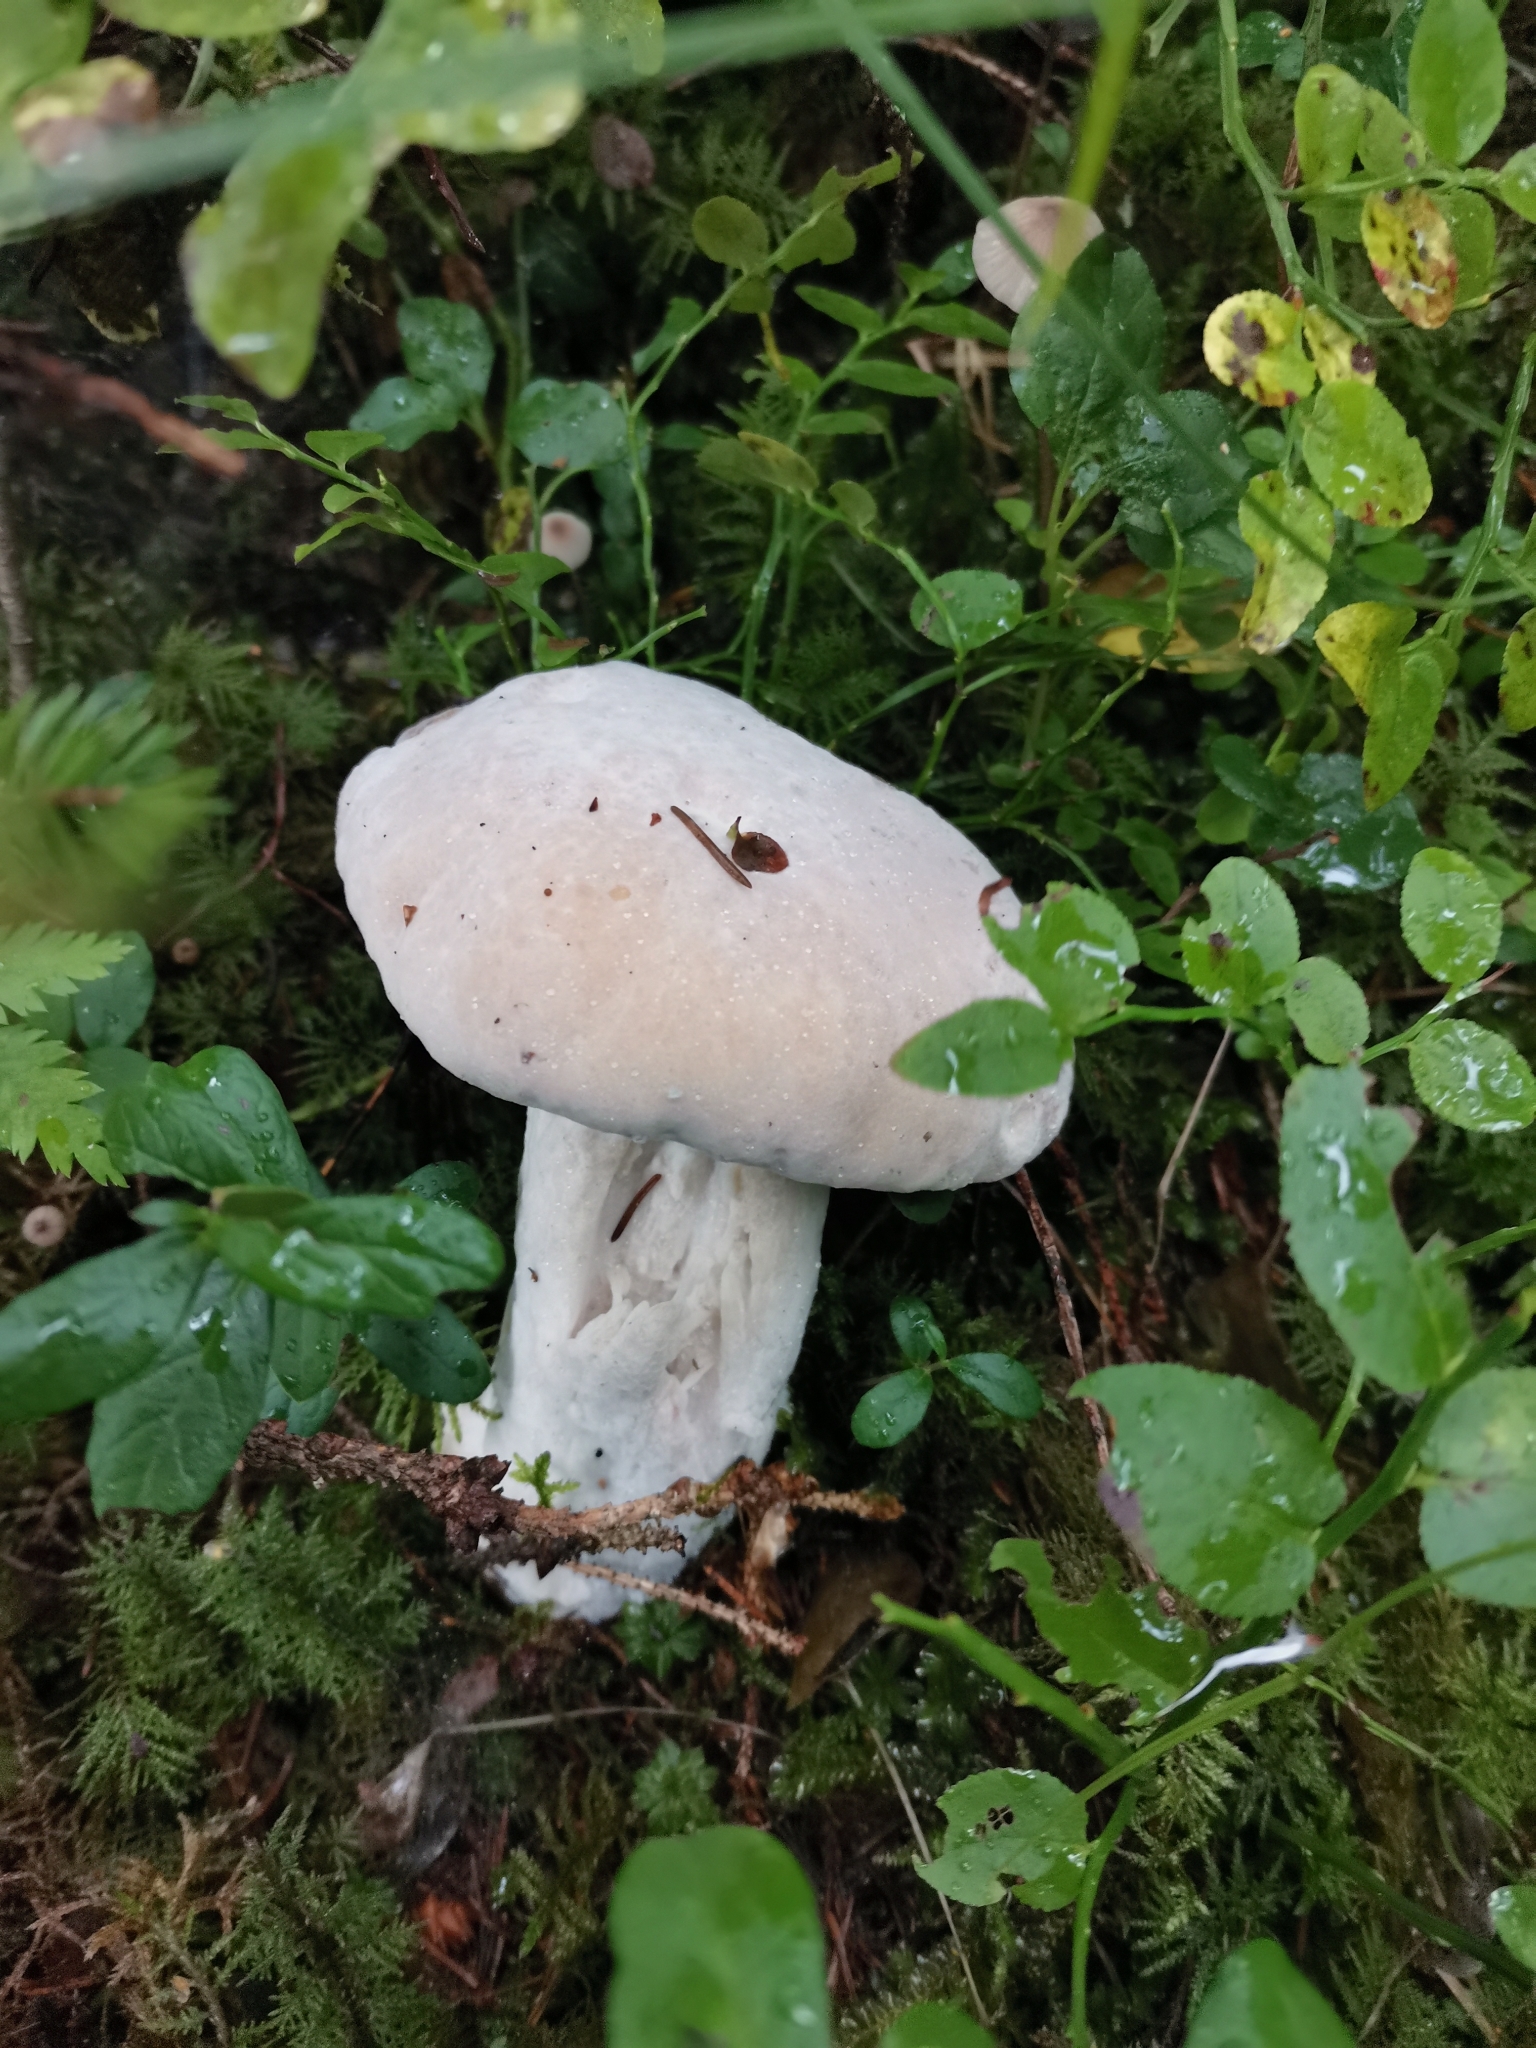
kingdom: Fungi
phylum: Ascomycota
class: Sordariomycetes
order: Hypocreales
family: Hypocreaceae
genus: Hypomyces
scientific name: Hypomyces chrysospermus
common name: Bolete mould
